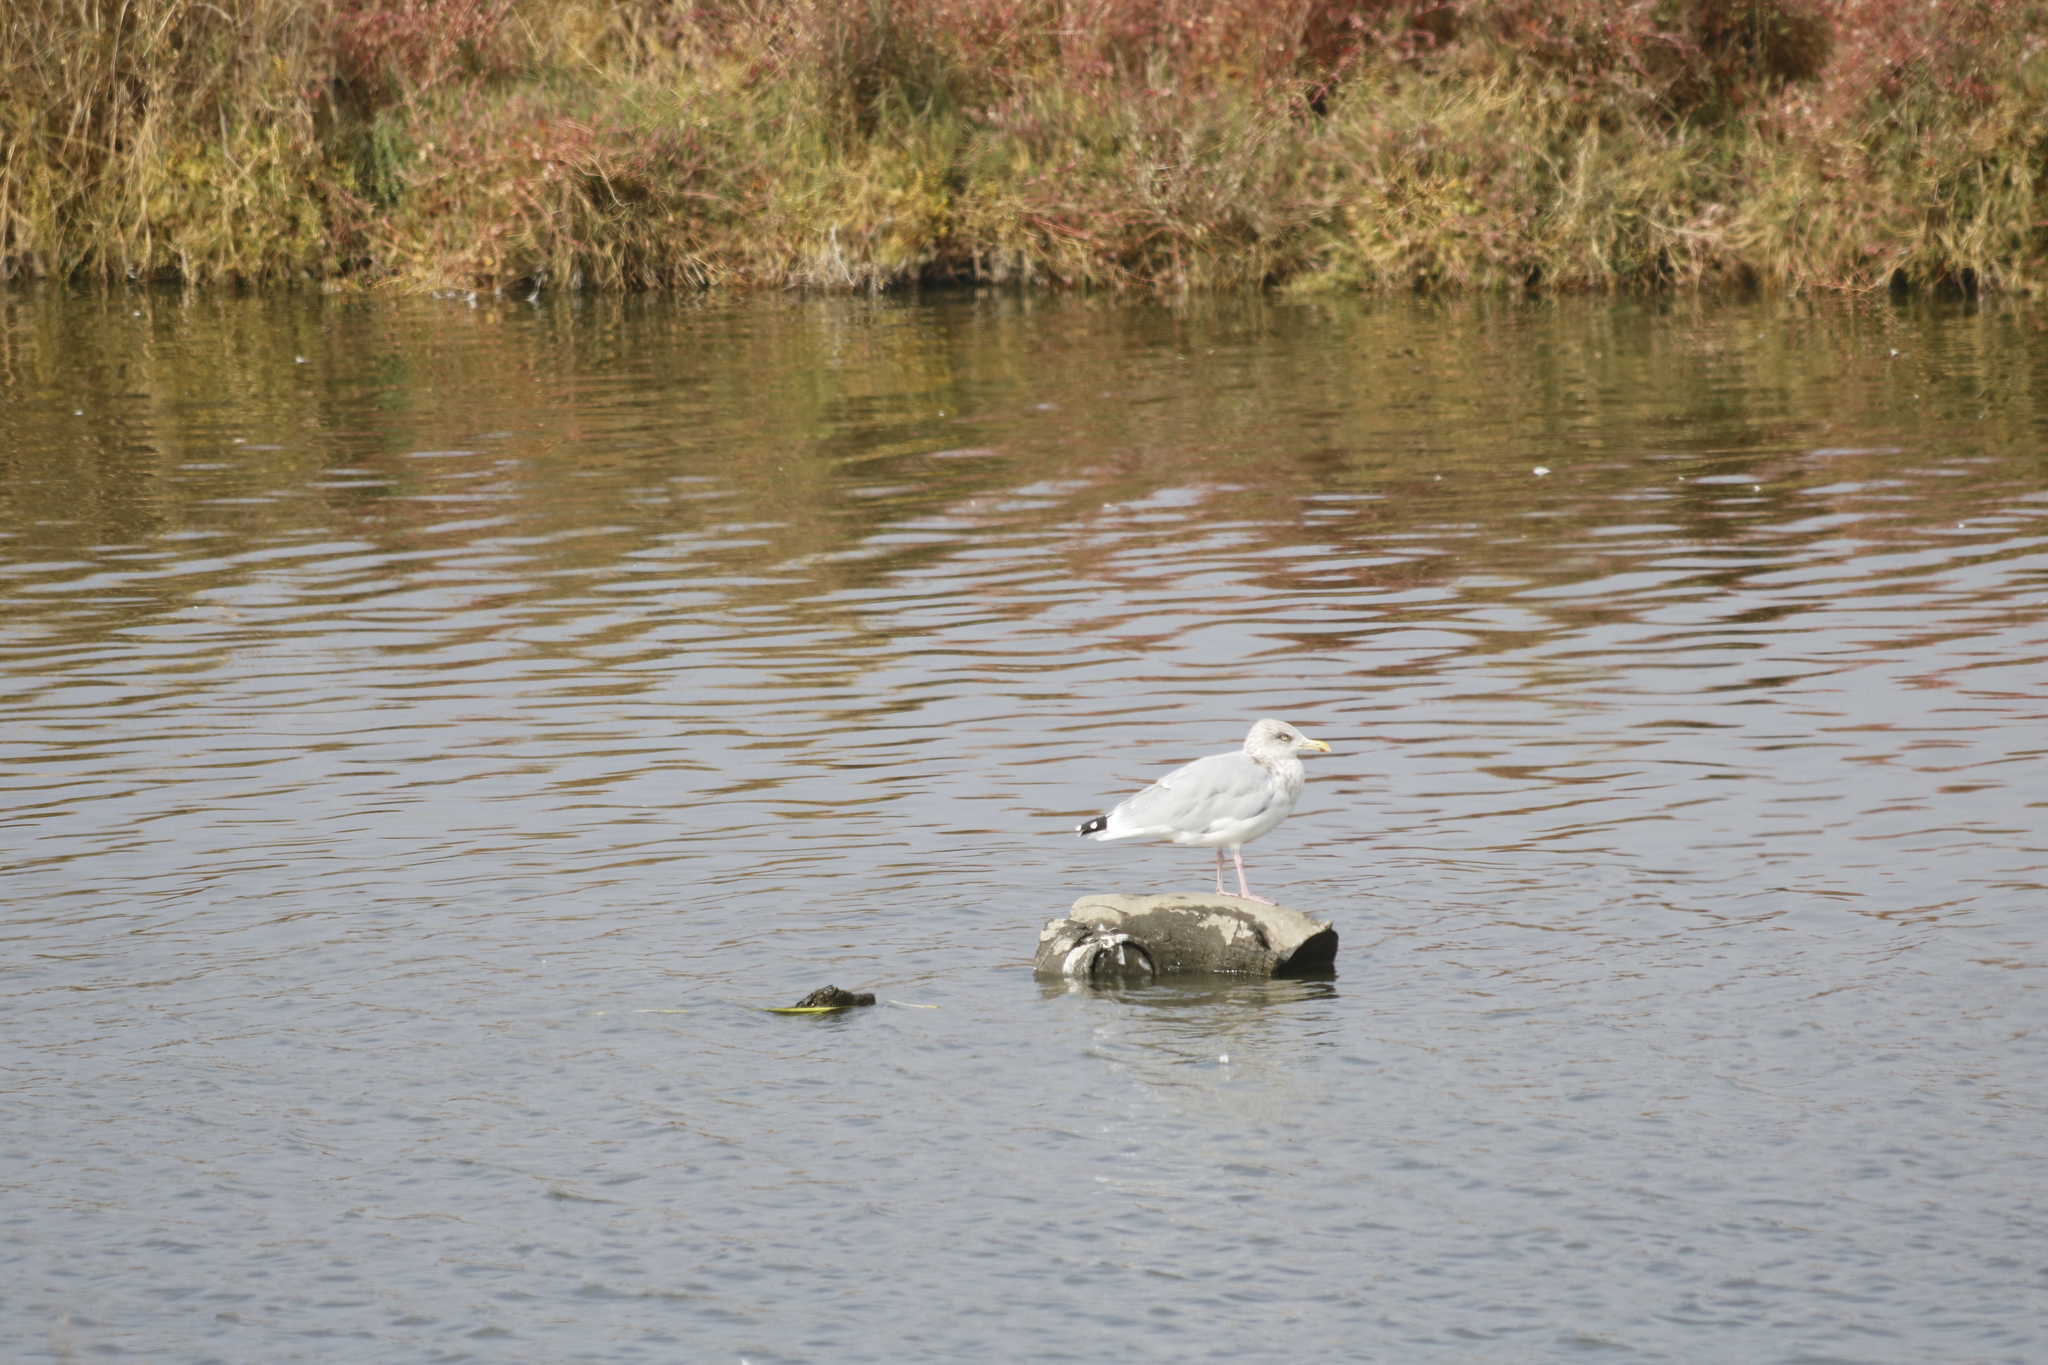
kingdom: Animalia
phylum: Chordata
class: Aves
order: Charadriiformes
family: Laridae
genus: Larus
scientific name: Larus argentatus
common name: Herring gull
